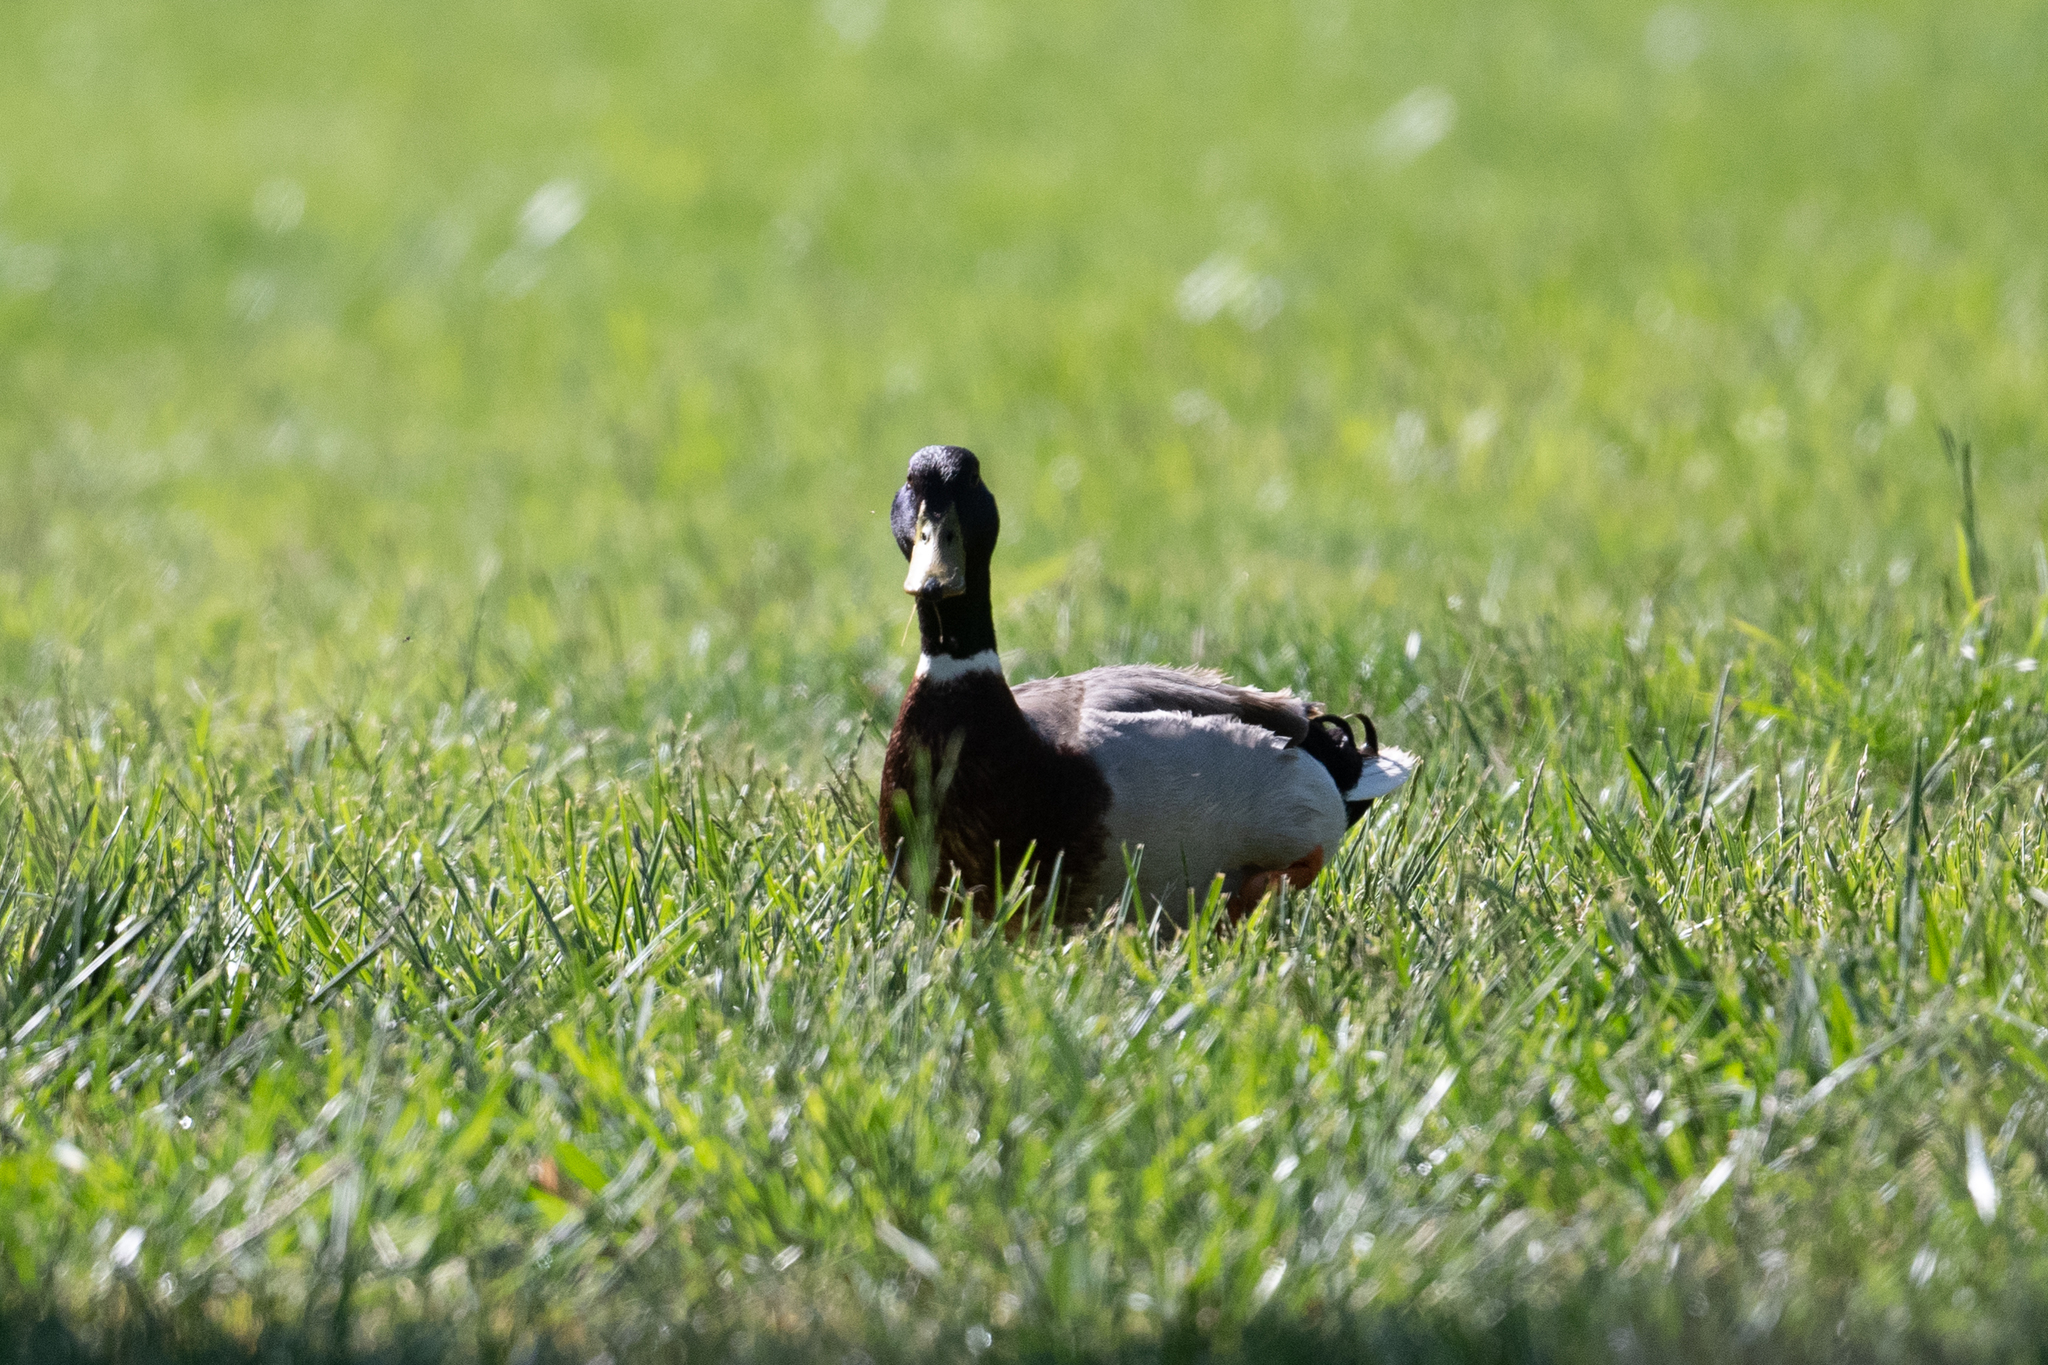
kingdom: Animalia
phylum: Chordata
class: Aves
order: Anseriformes
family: Anatidae
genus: Anas
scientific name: Anas platyrhynchos
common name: Mallard
